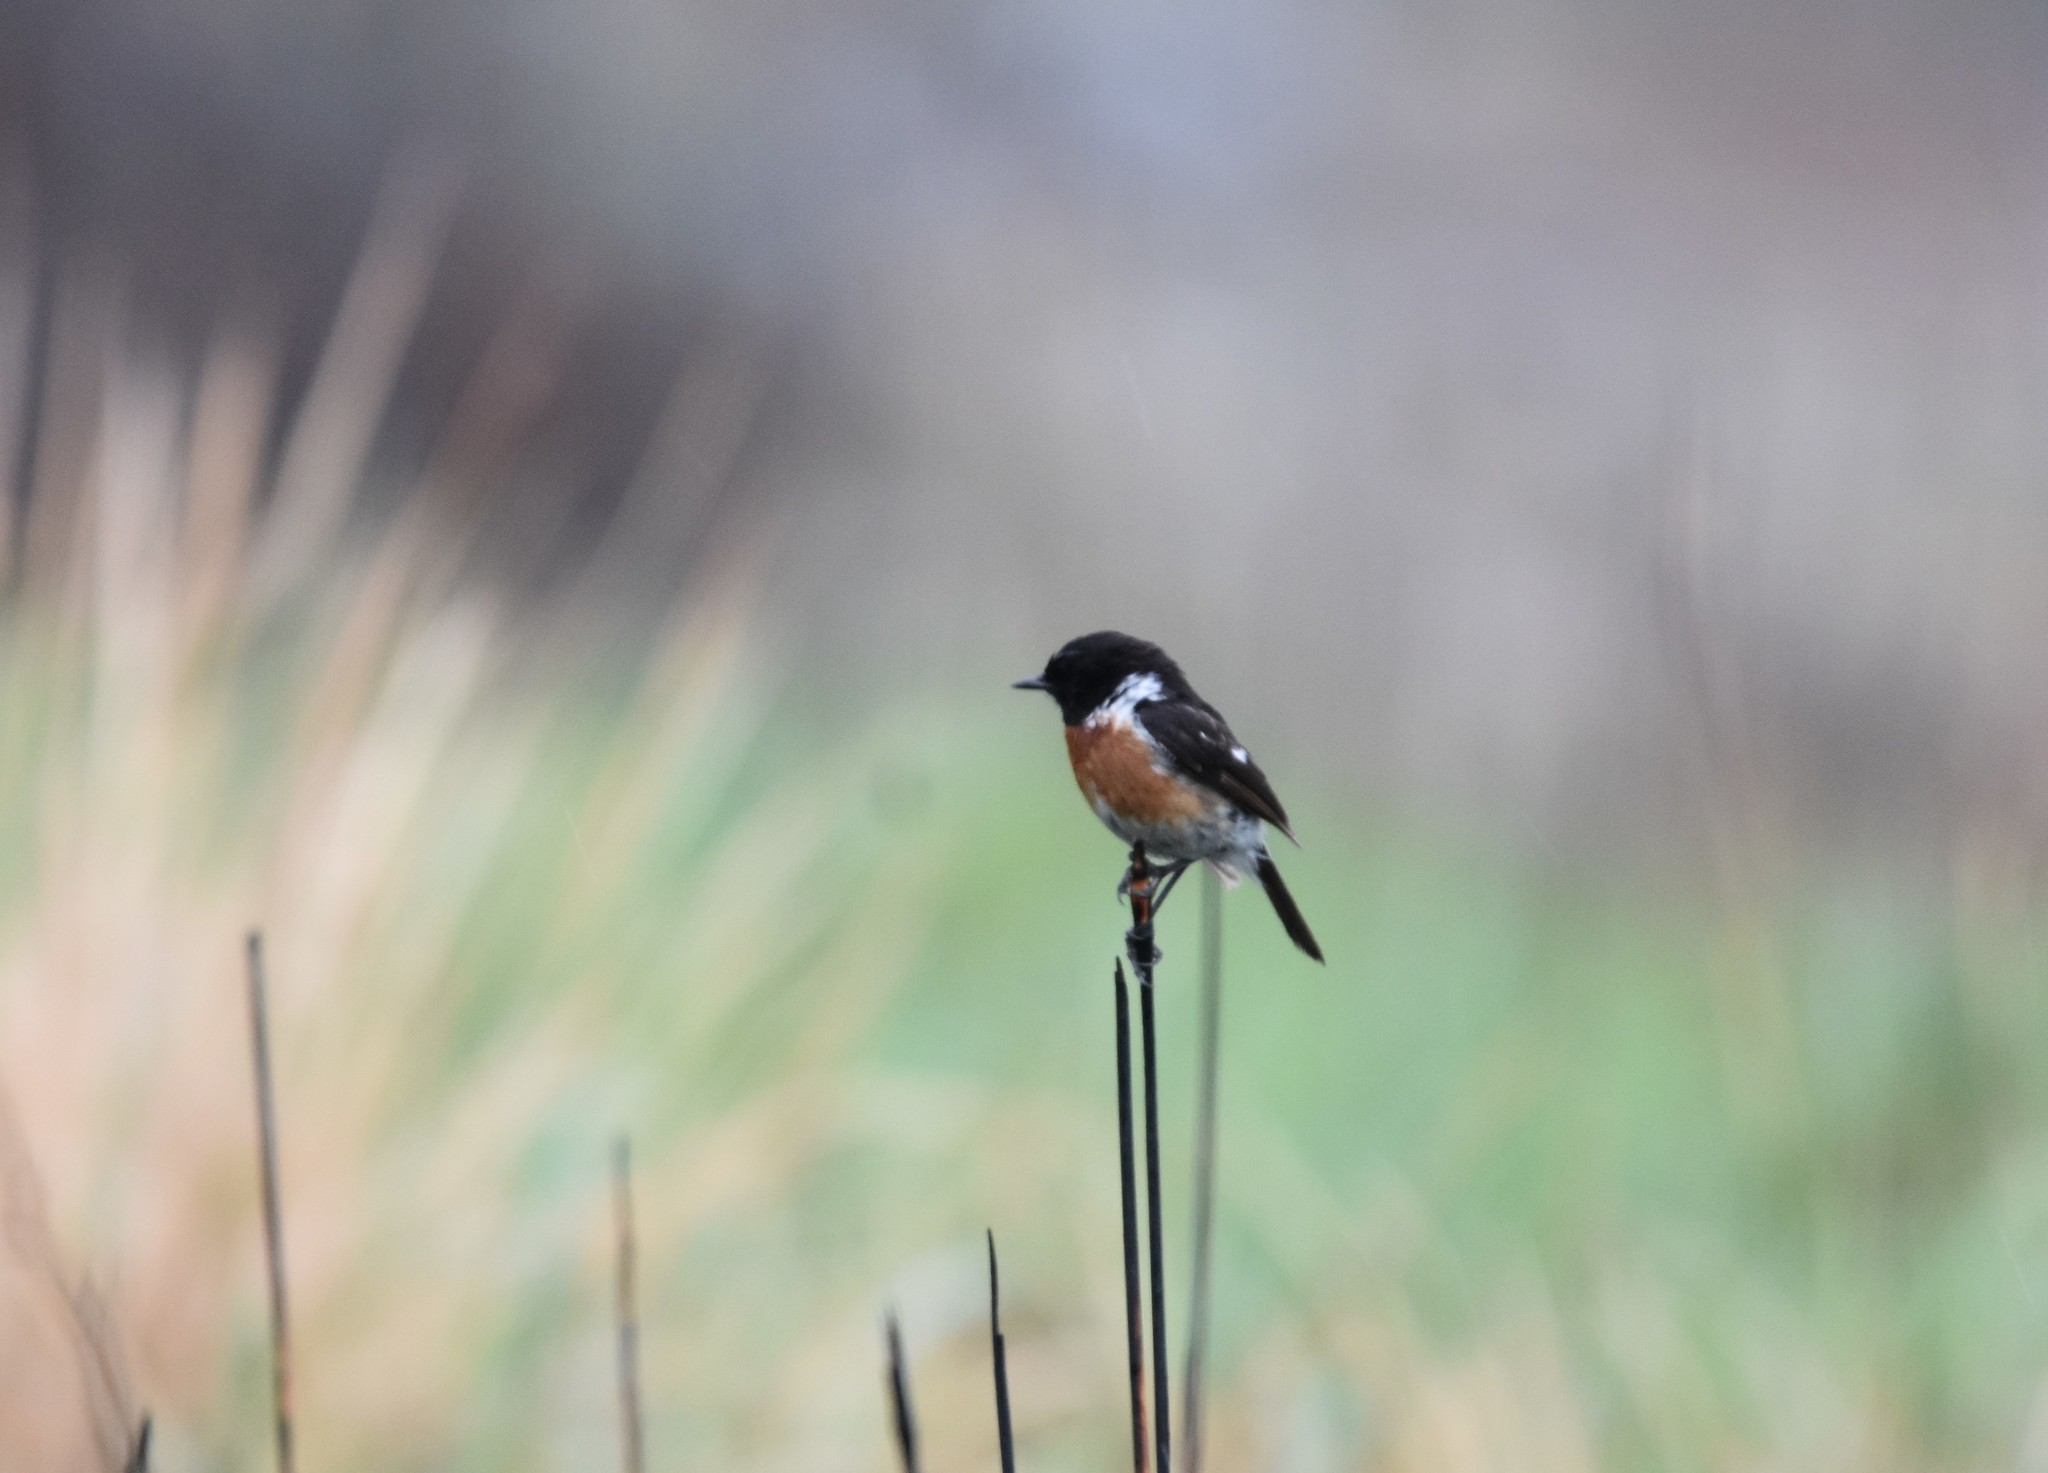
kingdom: Animalia
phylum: Chordata
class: Aves
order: Passeriformes
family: Muscicapidae
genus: Saxicola
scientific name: Saxicola torquatus
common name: African stonechat
